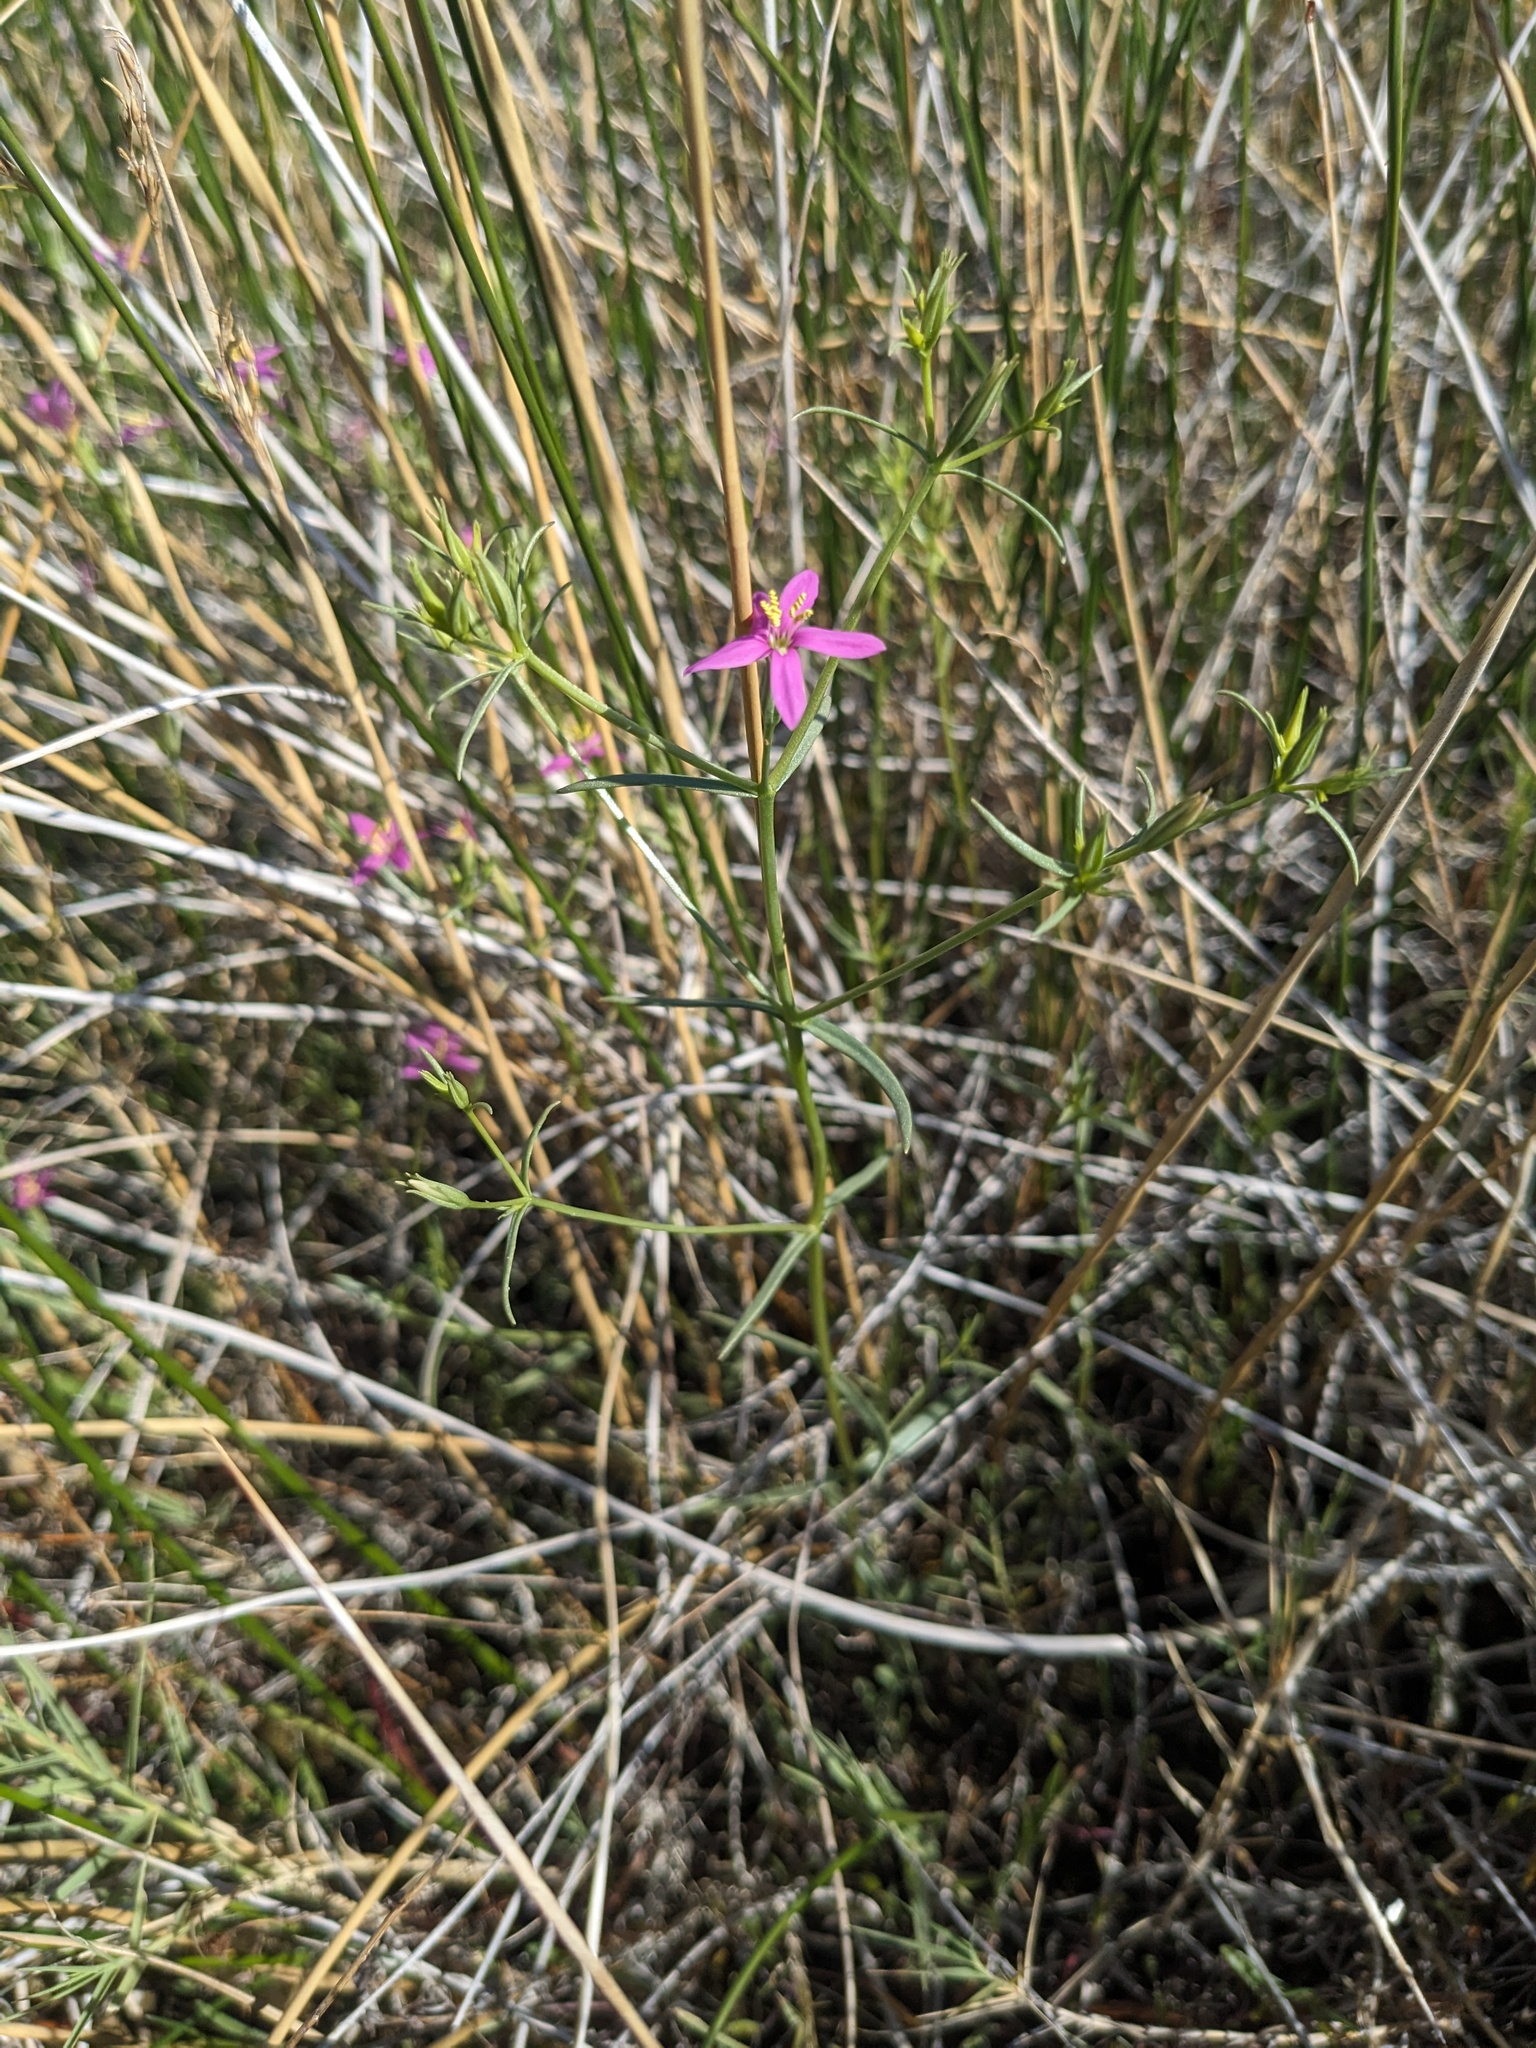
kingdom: Plantae
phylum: Tracheophyta
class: Magnoliopsida
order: Gentianales
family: Gentianaceae
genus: Zeltnera
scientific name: Zeltnera namatophila
